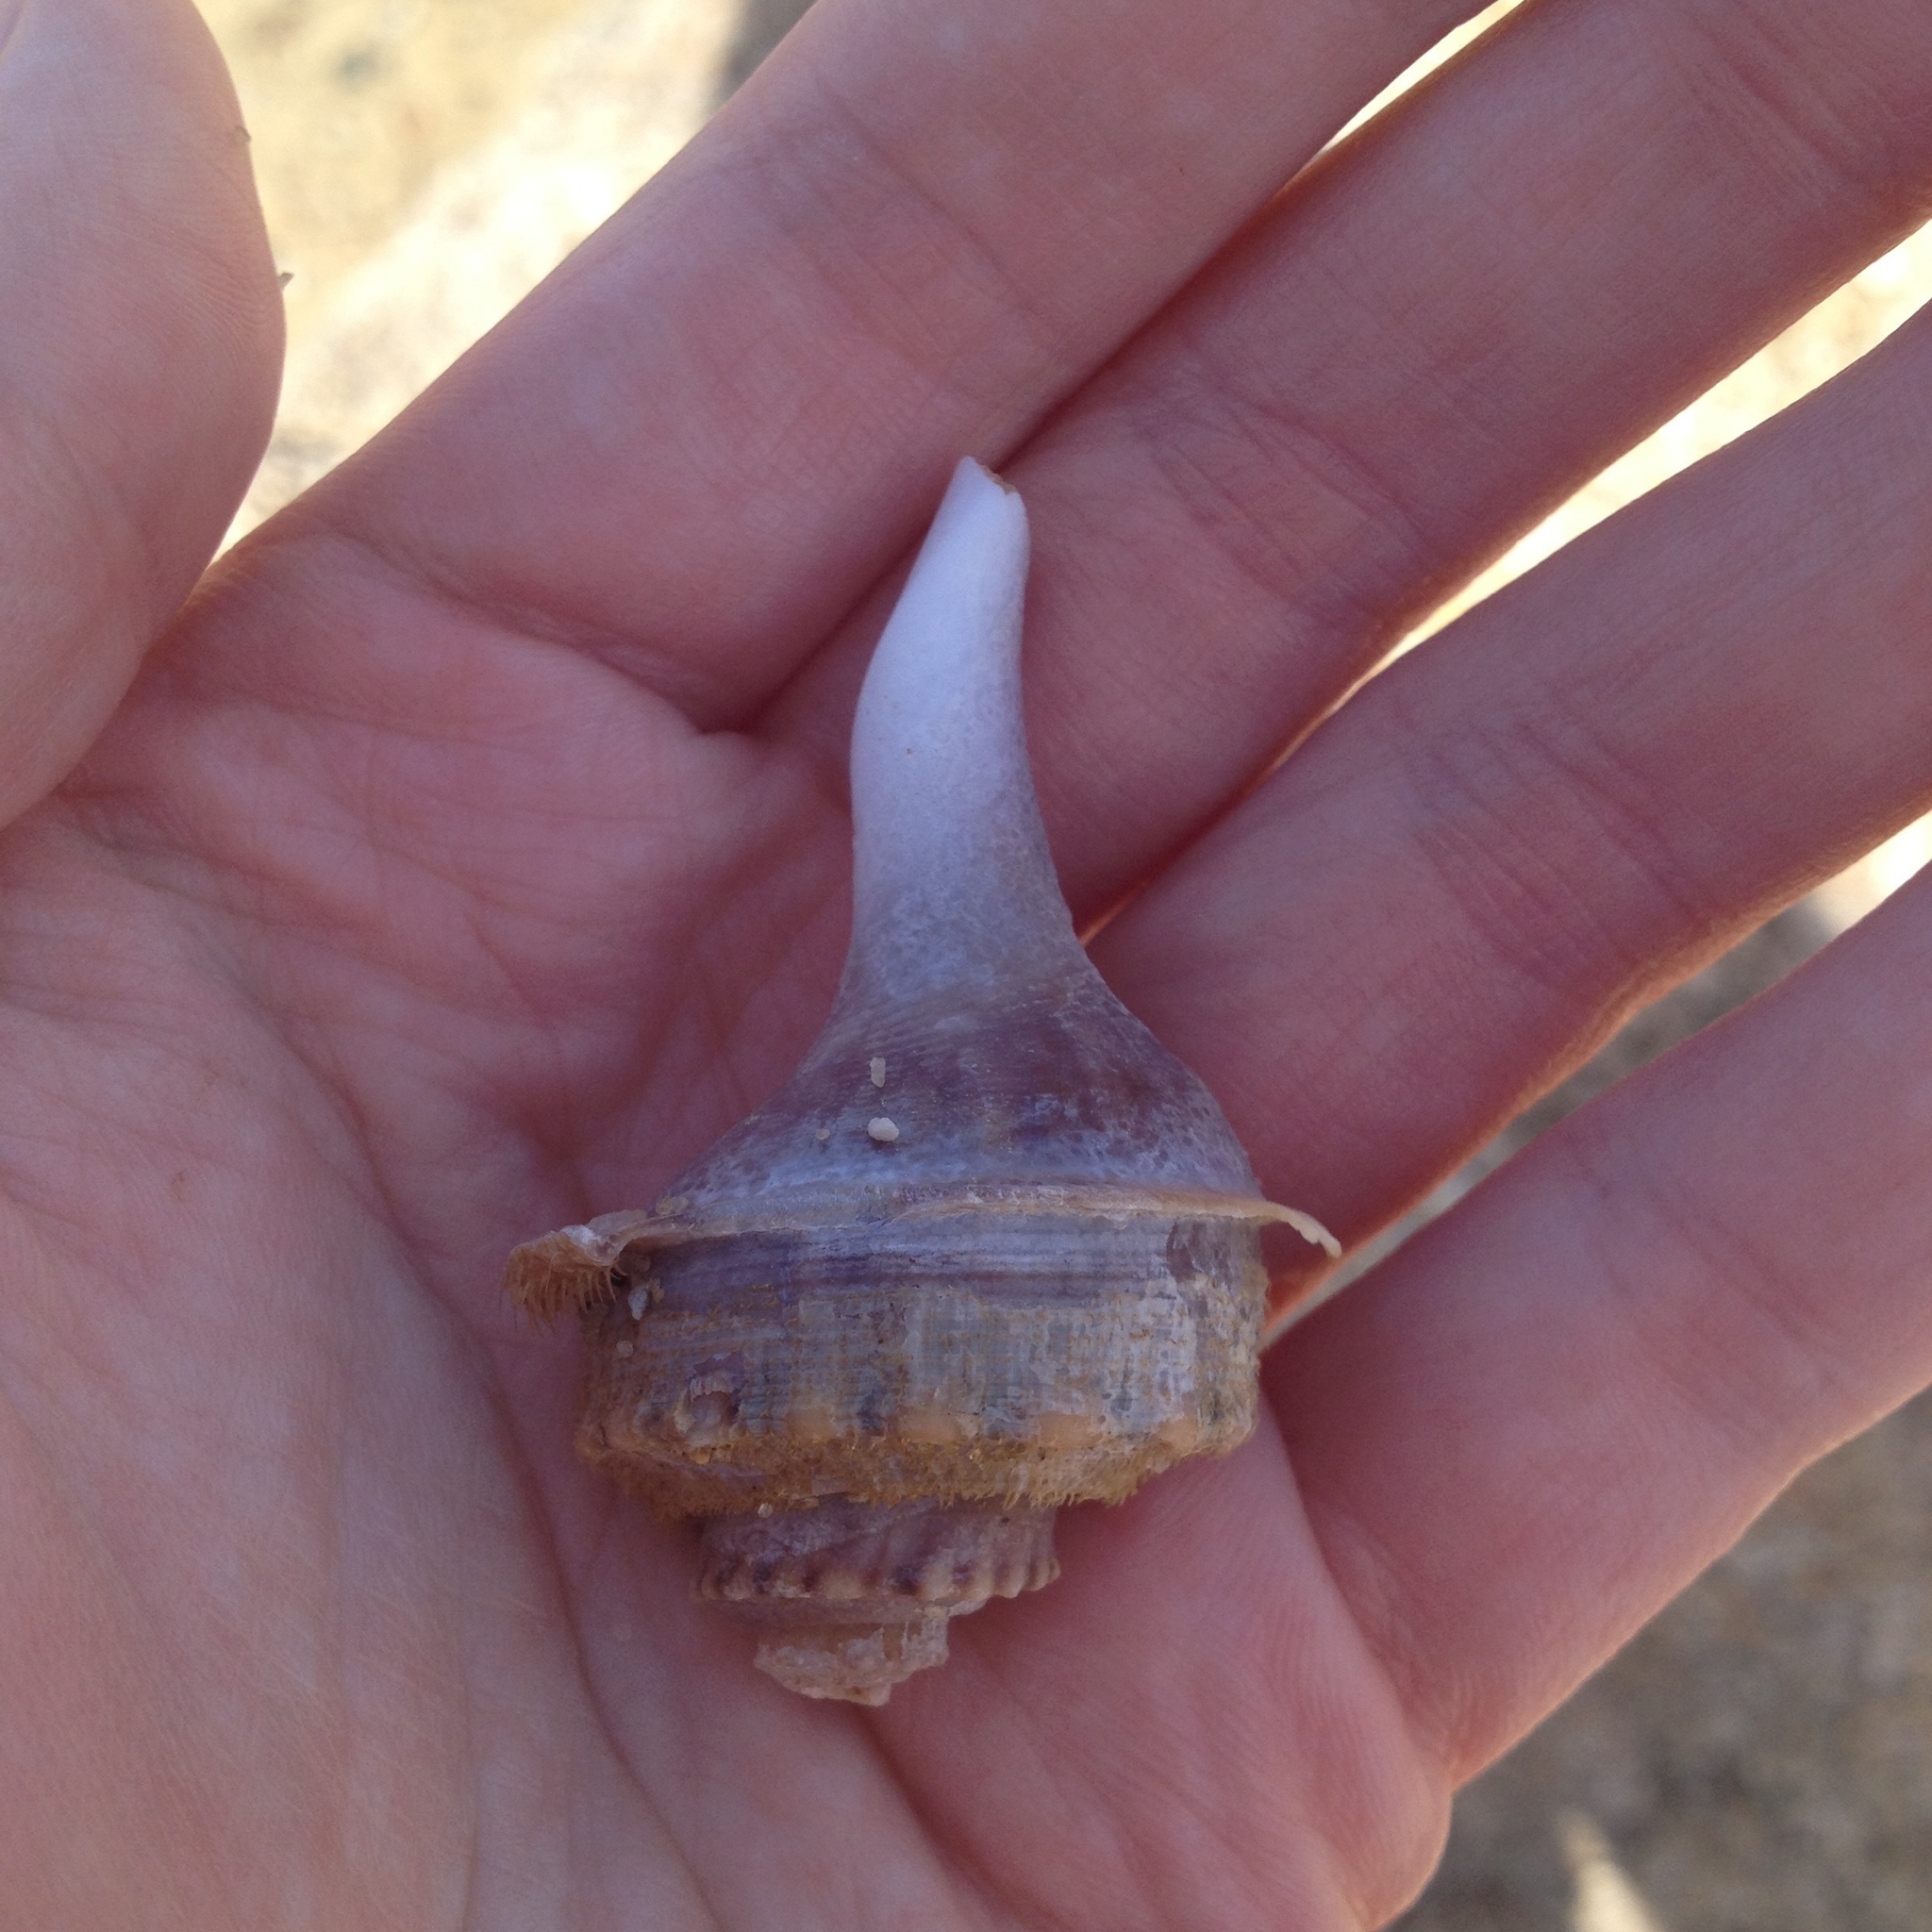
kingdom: Animalia
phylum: Mollusca
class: Gastropoda
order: Neogastropoda
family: Busyconidae
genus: Busycotypus
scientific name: Busycotypus canaliculatus
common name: Channeled whelk
